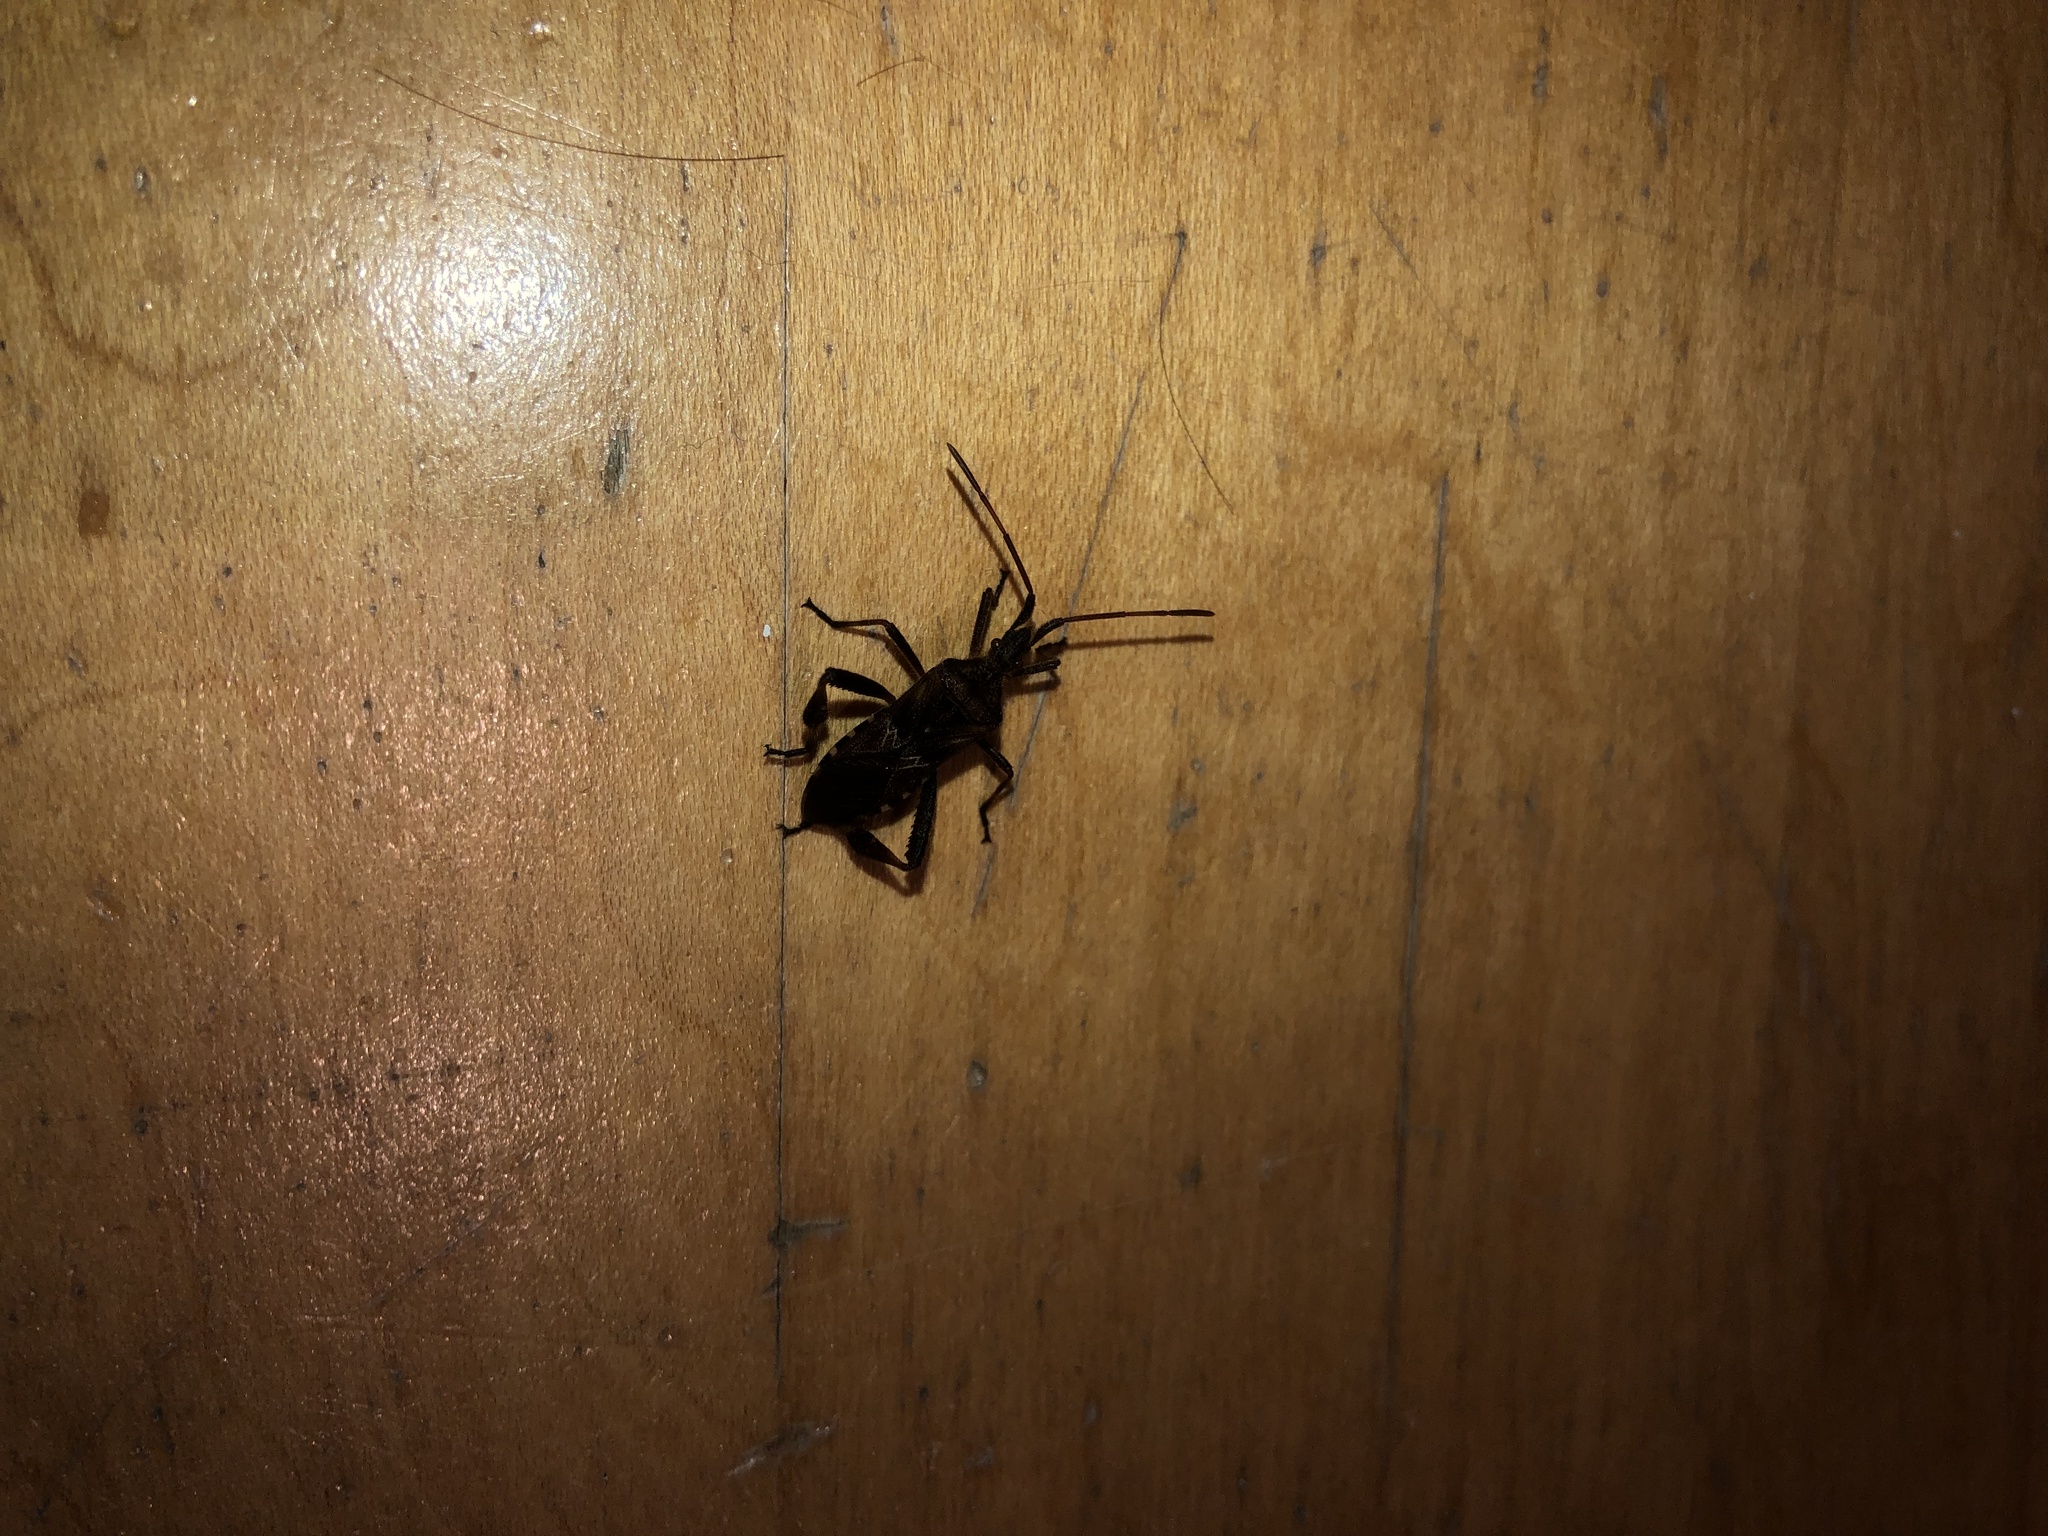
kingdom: Animalia
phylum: Arthropoda
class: Insecta
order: Hemiptera
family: Coreidae
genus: Leptoglossus
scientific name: Leptoglossus occidentalis
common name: Western conifer-seed bug
